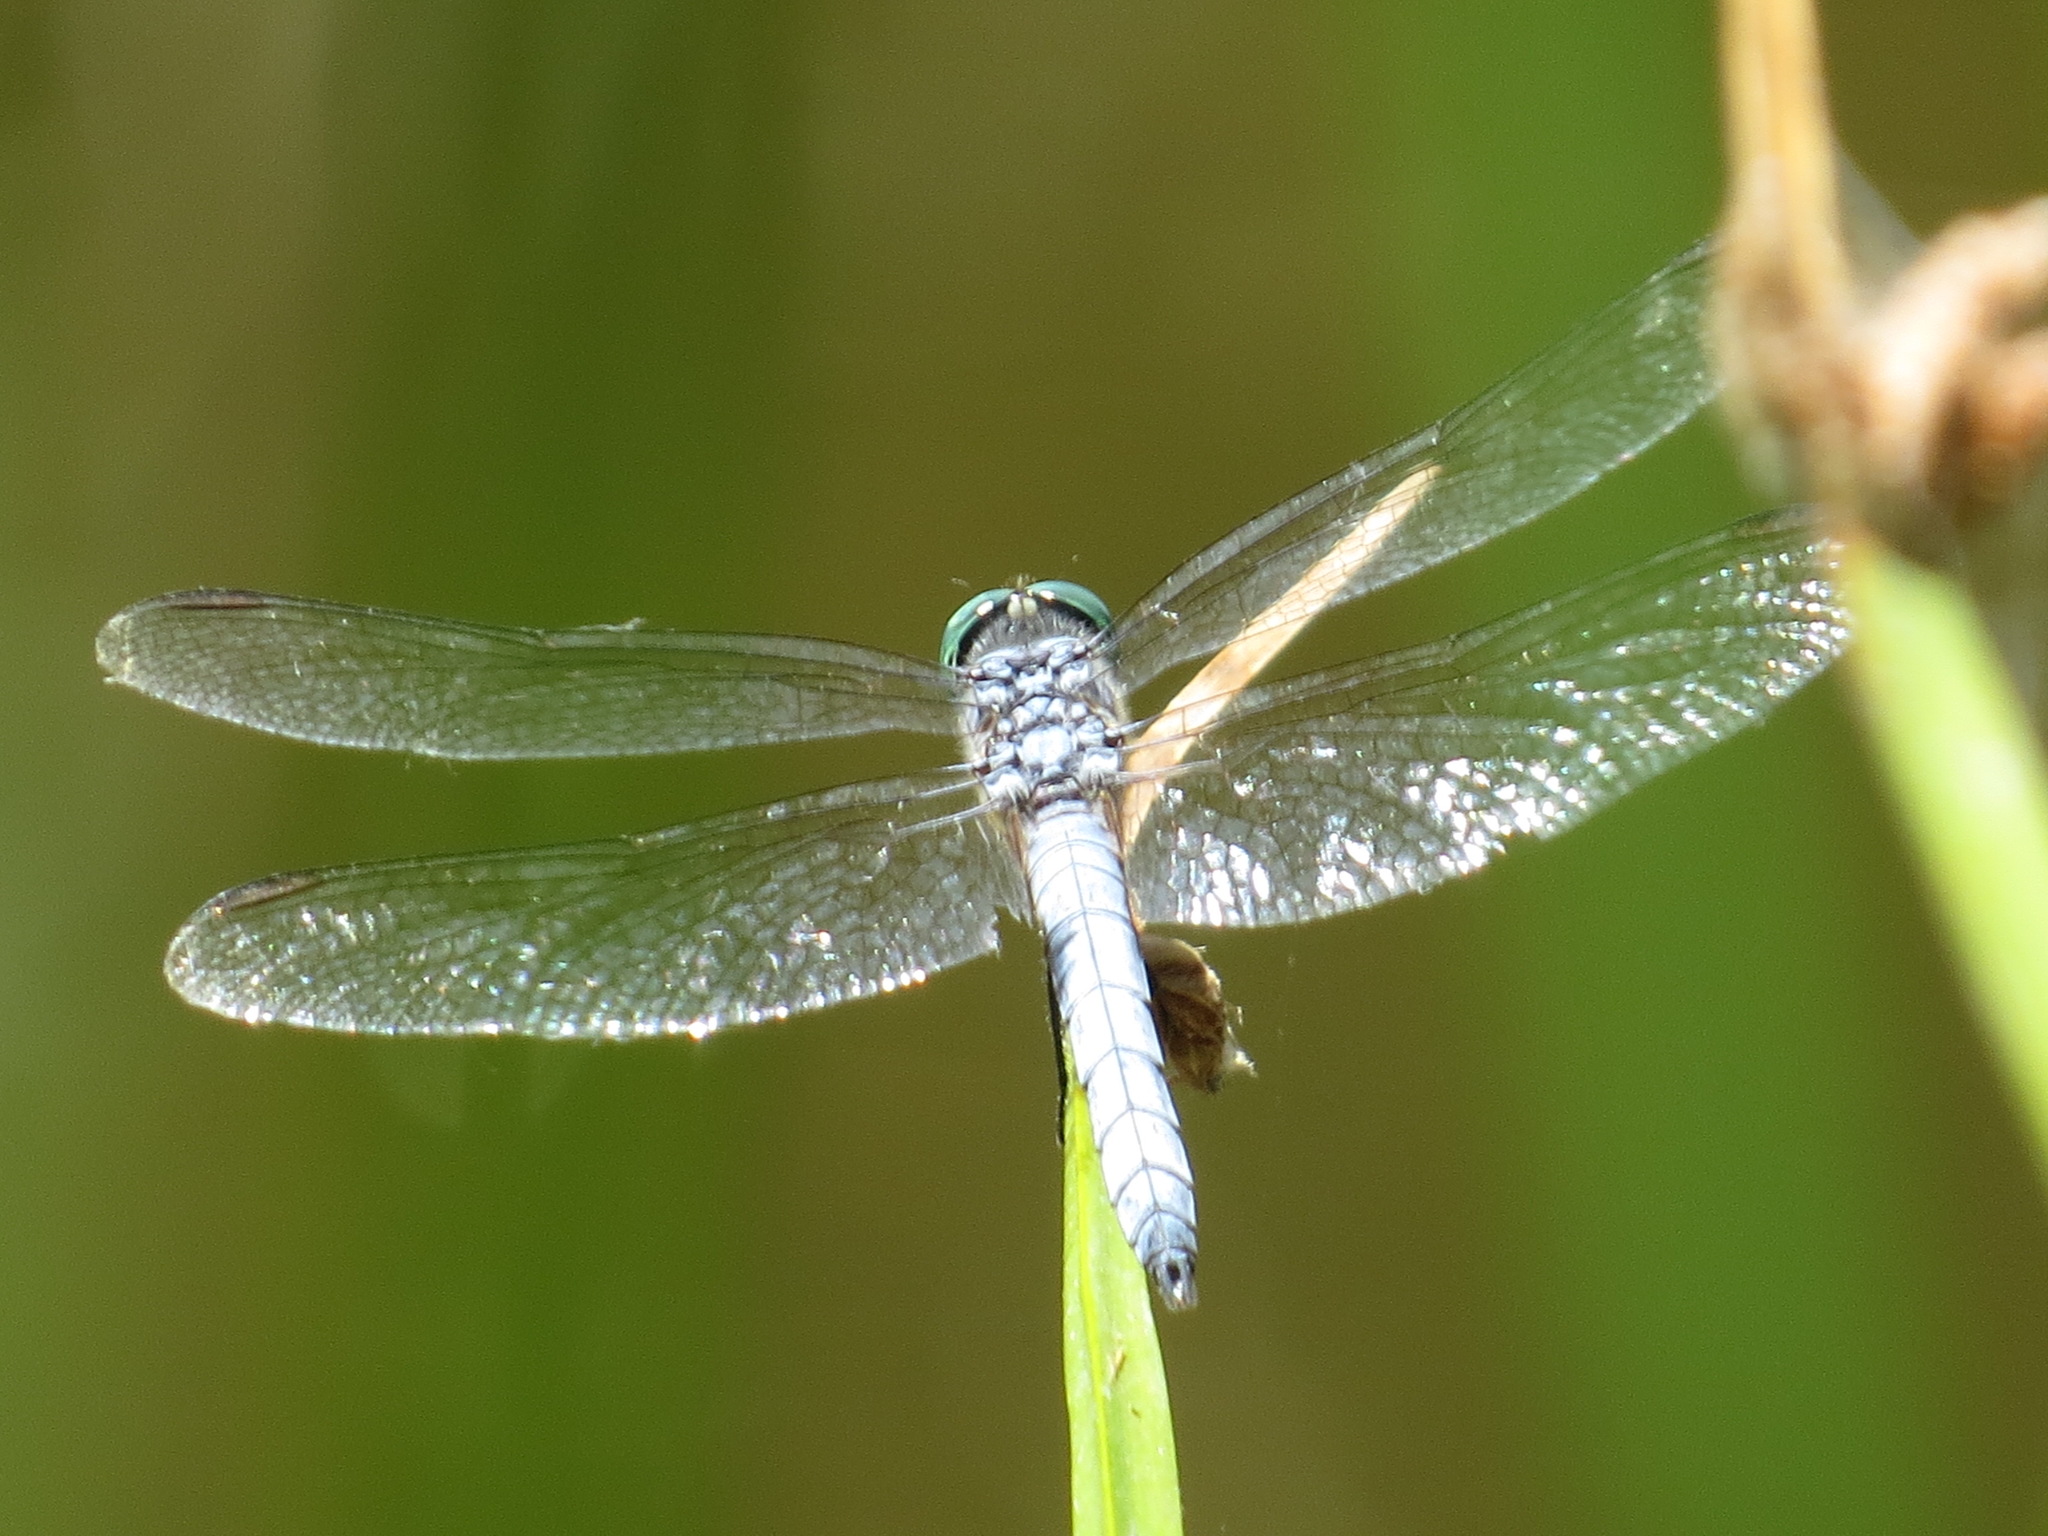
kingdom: Animalia
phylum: Arthropoda
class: Insecta
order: Odonata
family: Libellulidae
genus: Pachydiplax
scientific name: Pachydiplax longipennis
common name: Blue dasher
